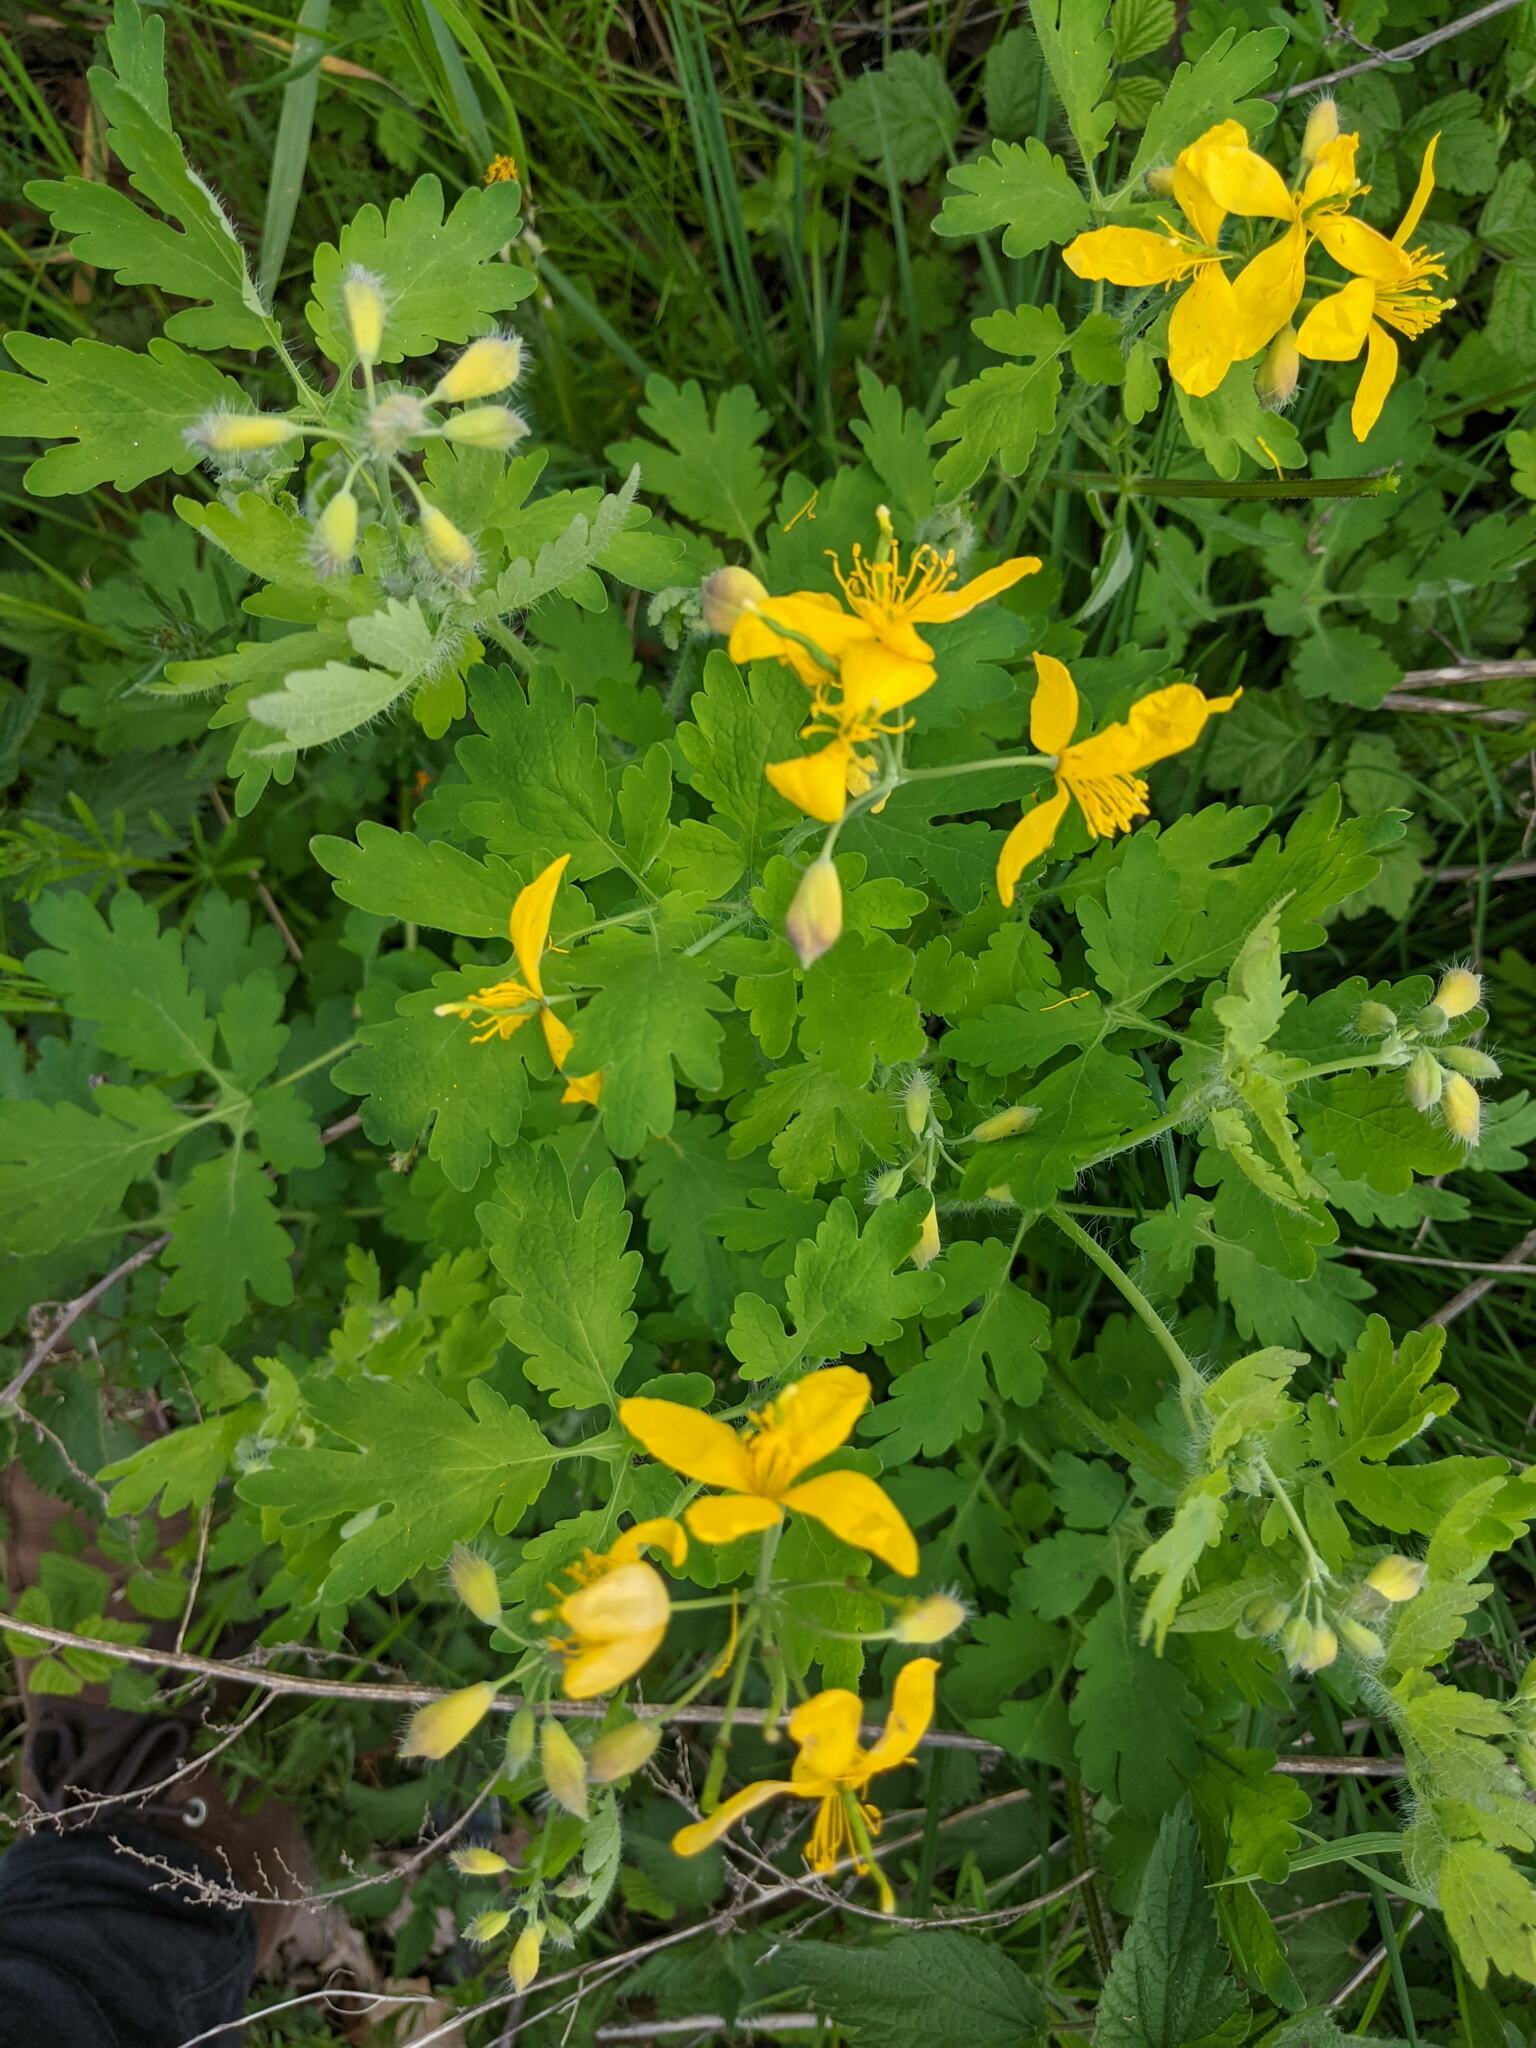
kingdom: Plantae
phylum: Tracheophyta
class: Magnoliopsida
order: Ranunculales
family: Papaveraceae
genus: Chelidonium
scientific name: Chelidonium majus
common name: Greater celandine
